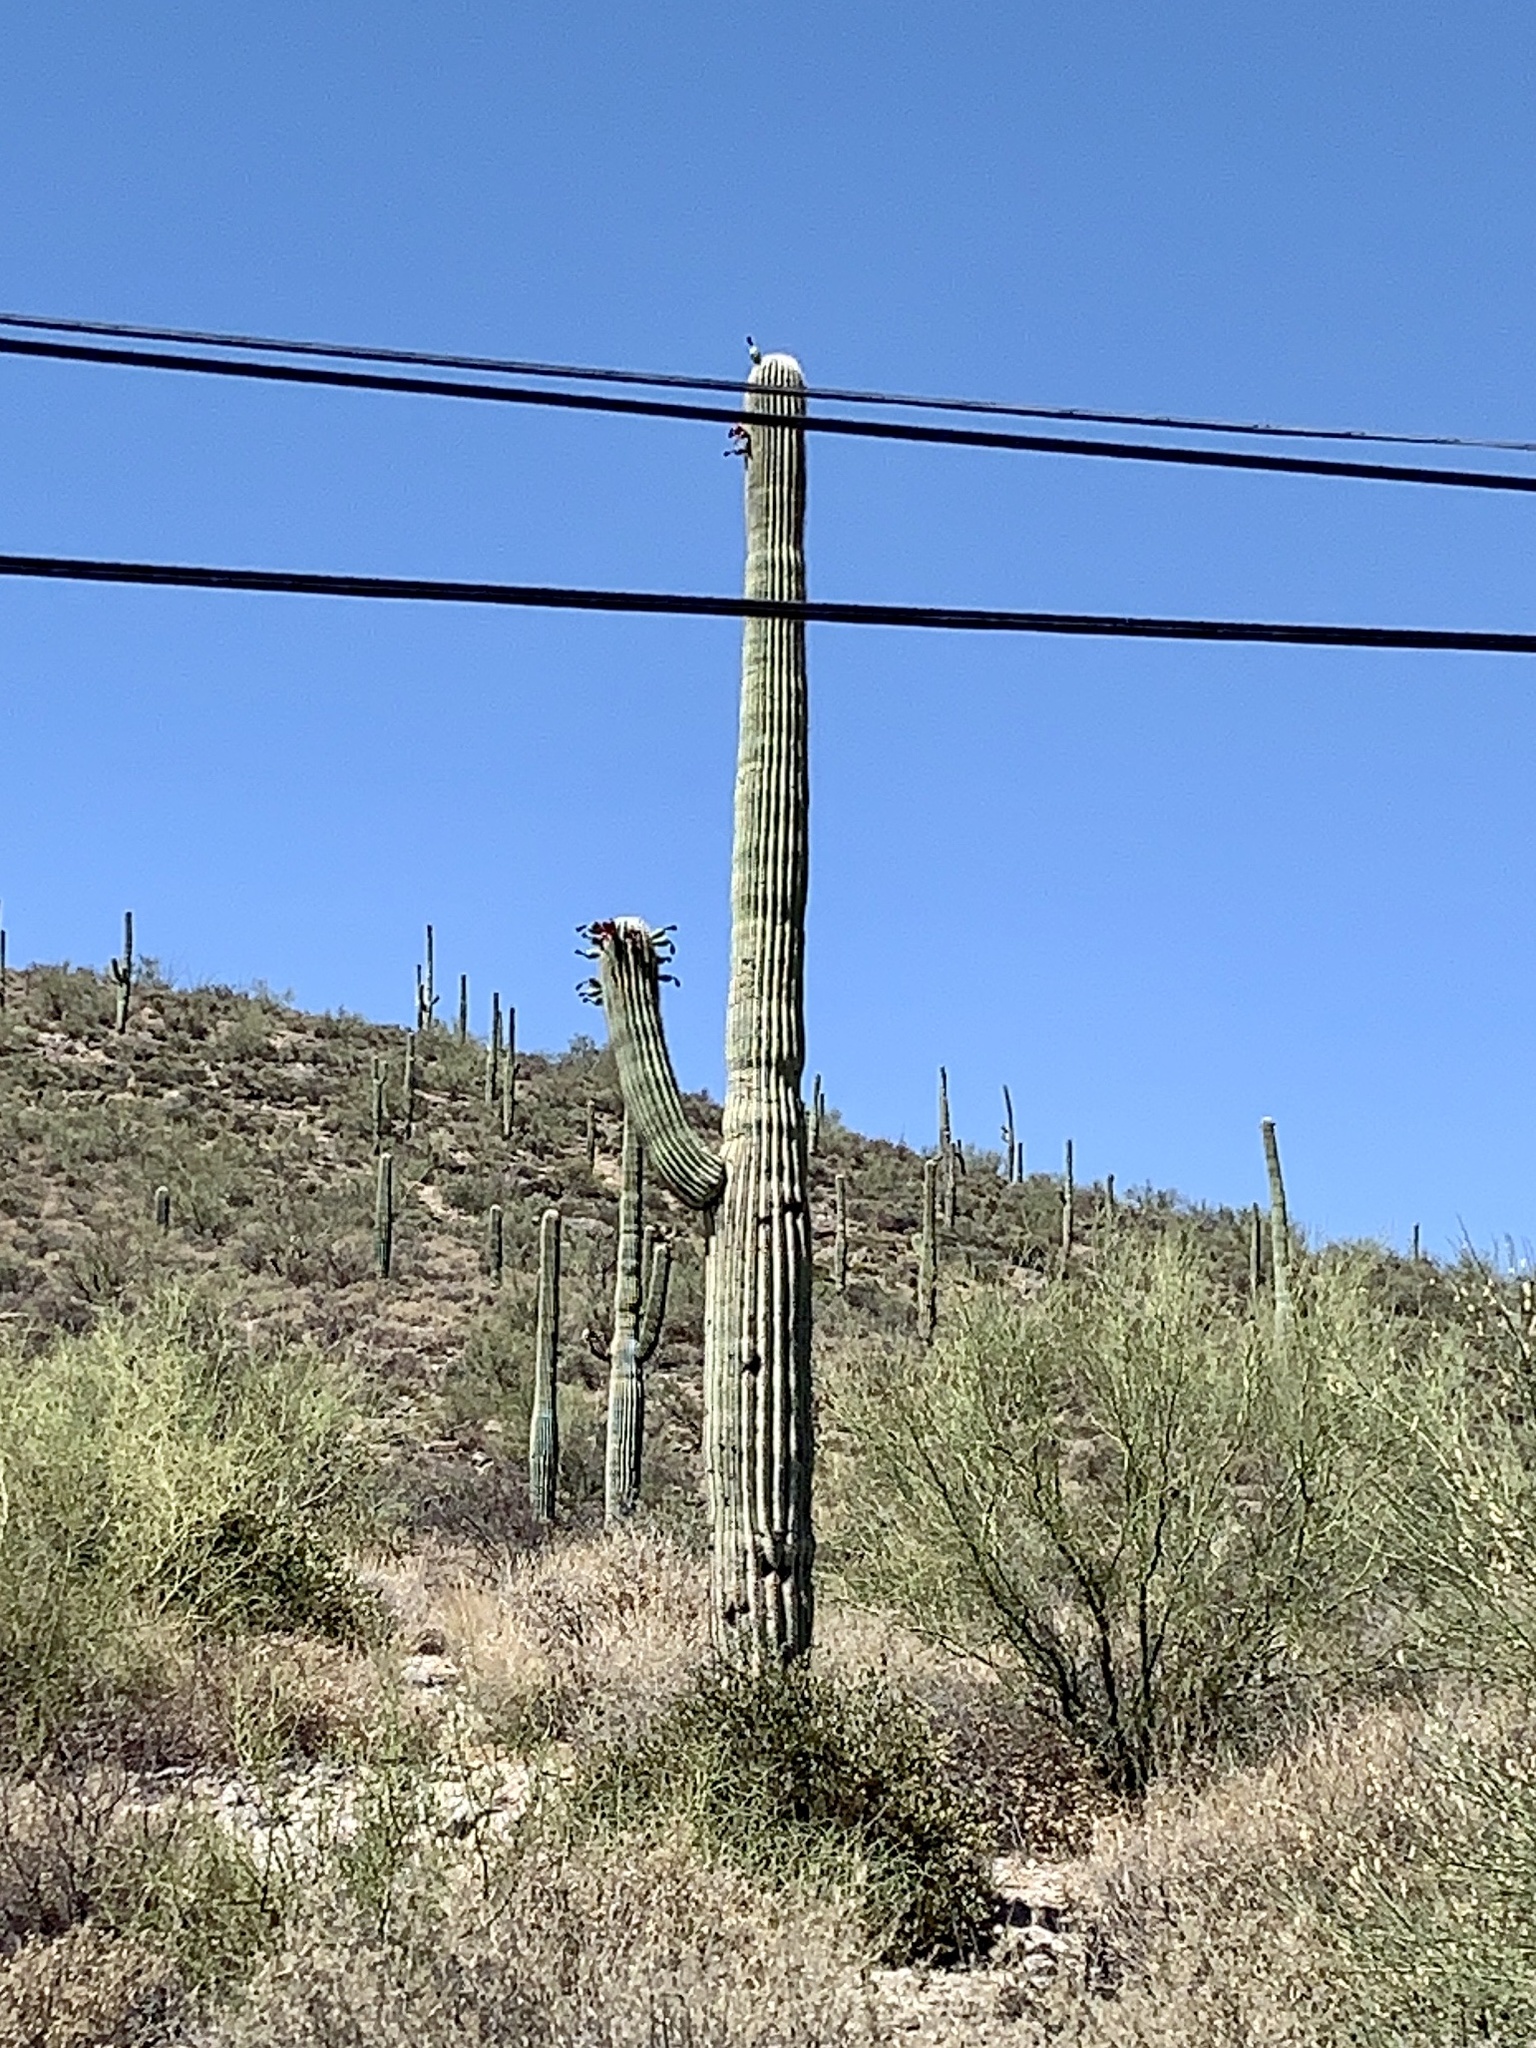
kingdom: Plantae
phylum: Tracheophyta
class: Magnoliopsida
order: Caryophyllales
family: Cactaceae
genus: Carnegiea
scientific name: Carnegiea gigantea
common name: Saguaro
